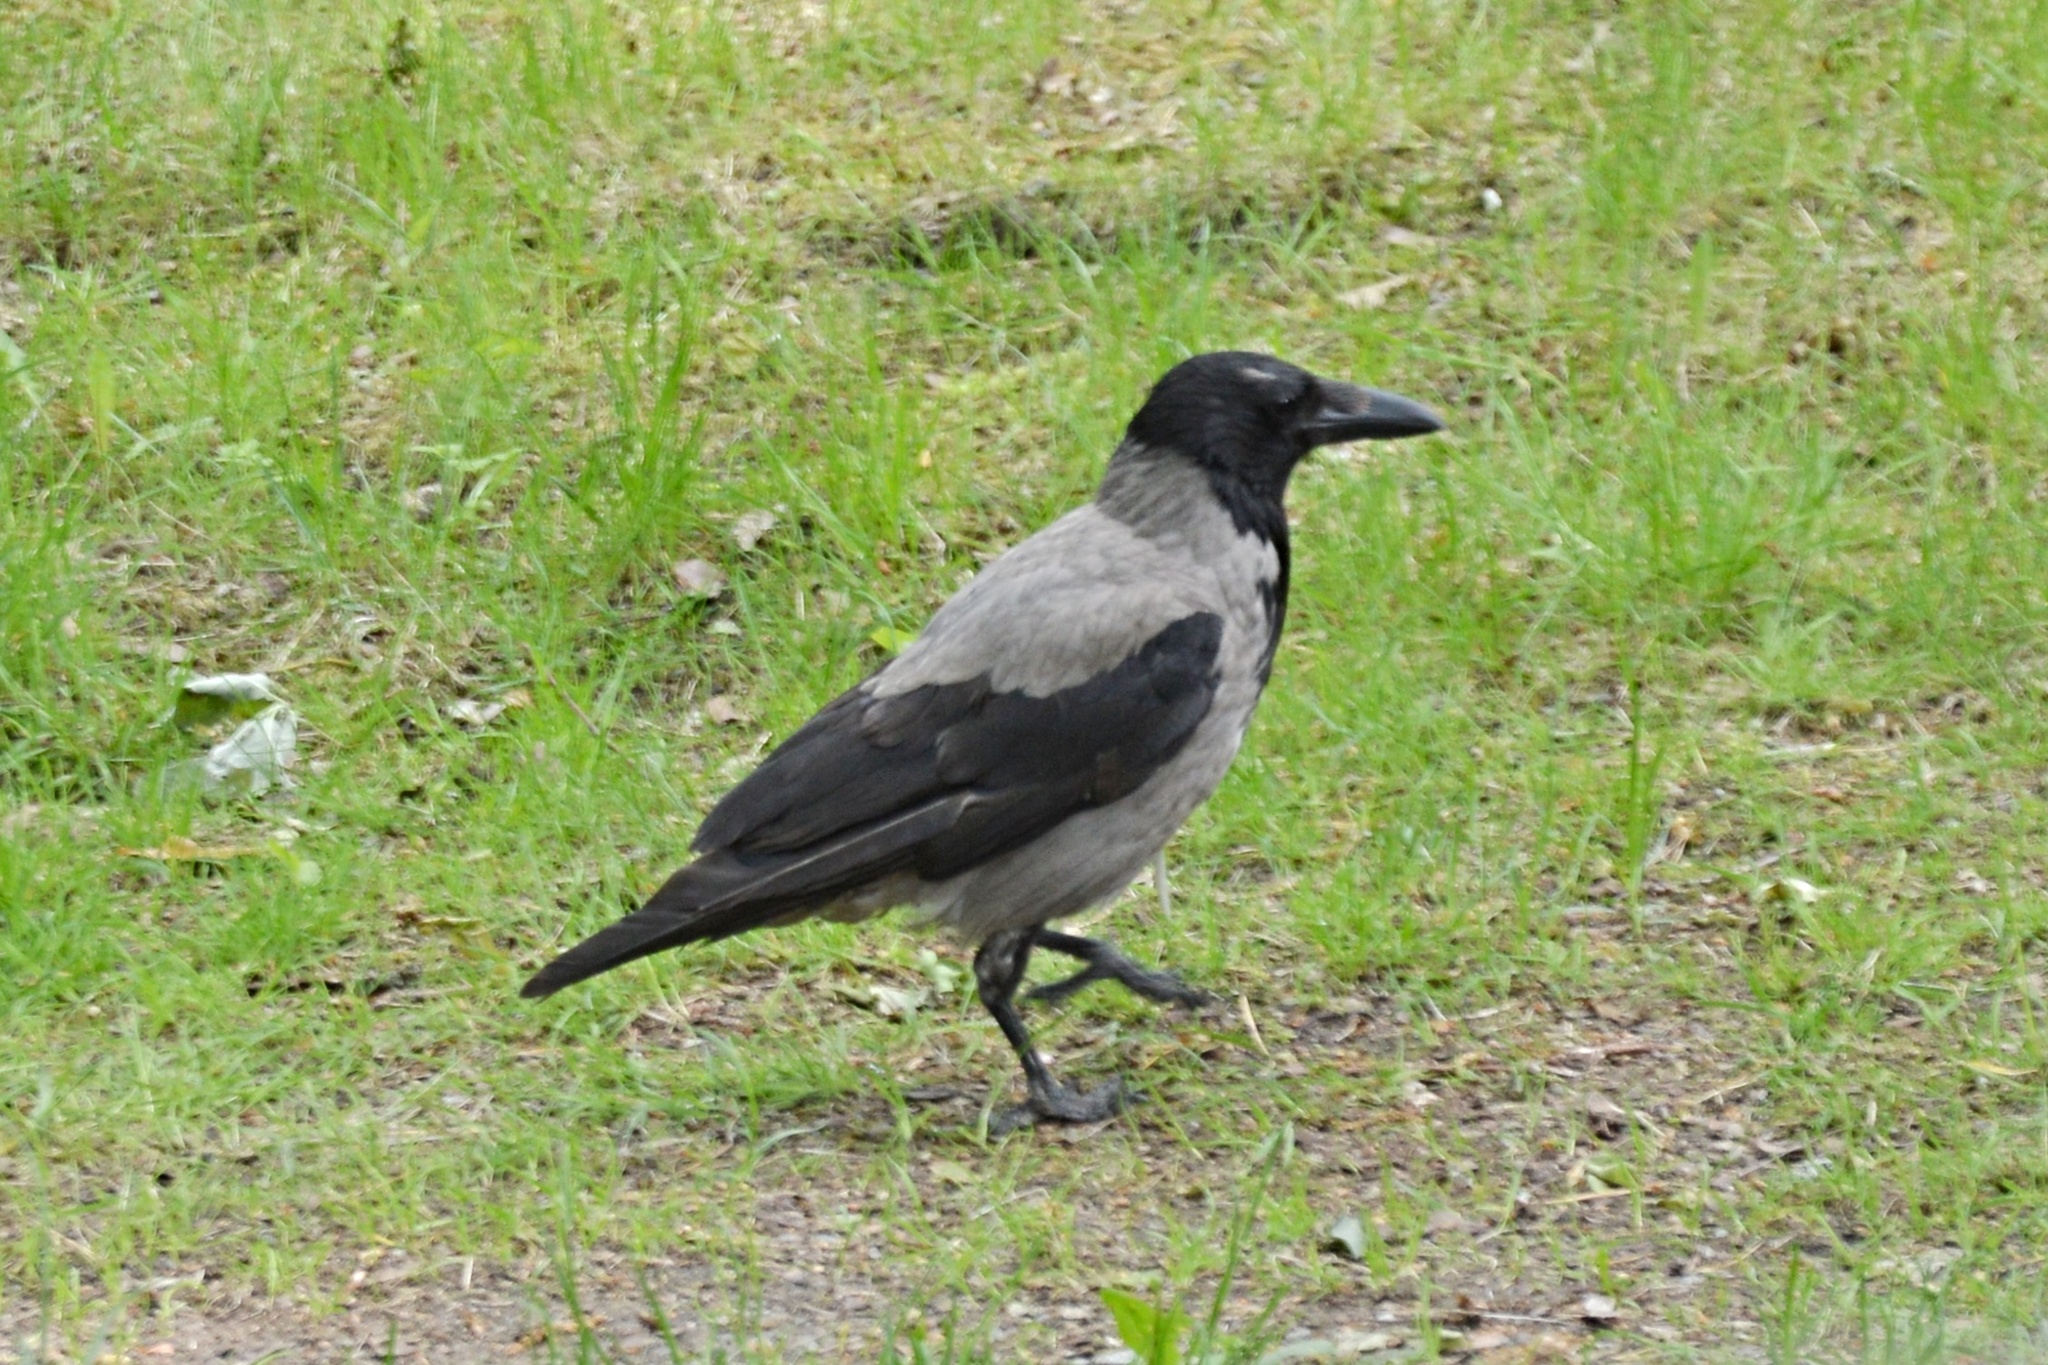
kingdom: Animalia
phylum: Chordata
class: Aves
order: Passeriformes
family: Corvidae
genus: Corvus
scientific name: Corvus cornix
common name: Hooded crow
